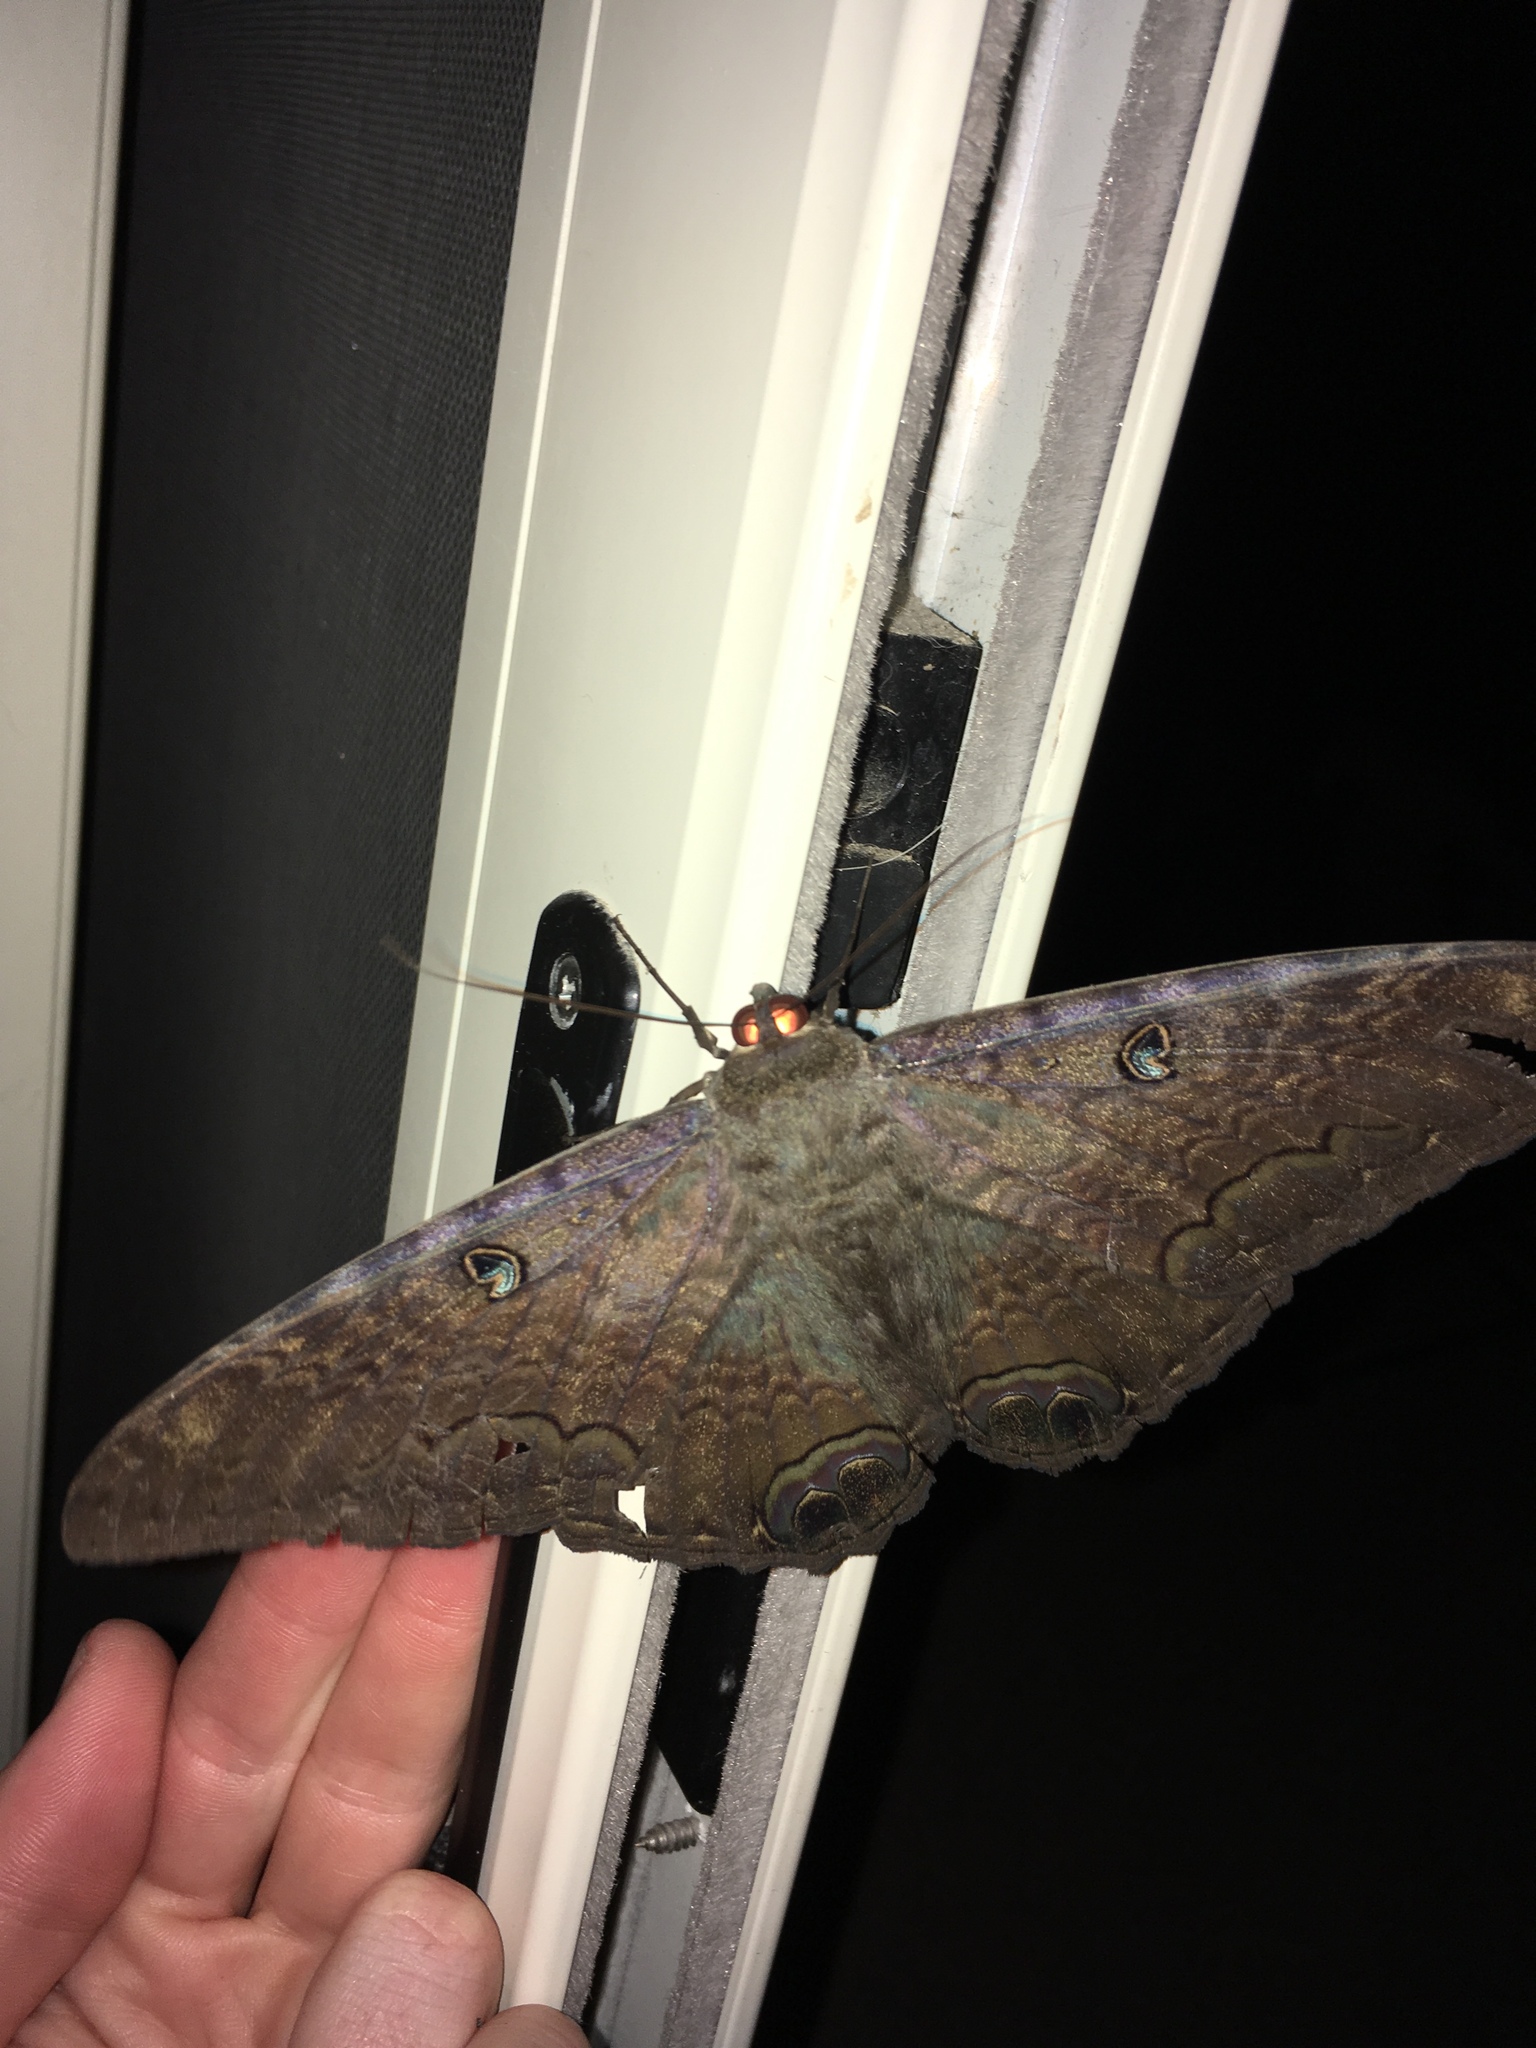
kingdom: Animalia
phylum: Arthropoda
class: Insecta
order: Lepidoptera
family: Erebidae
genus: Ascalapha
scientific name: Ascalapha odorata
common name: Black witch
